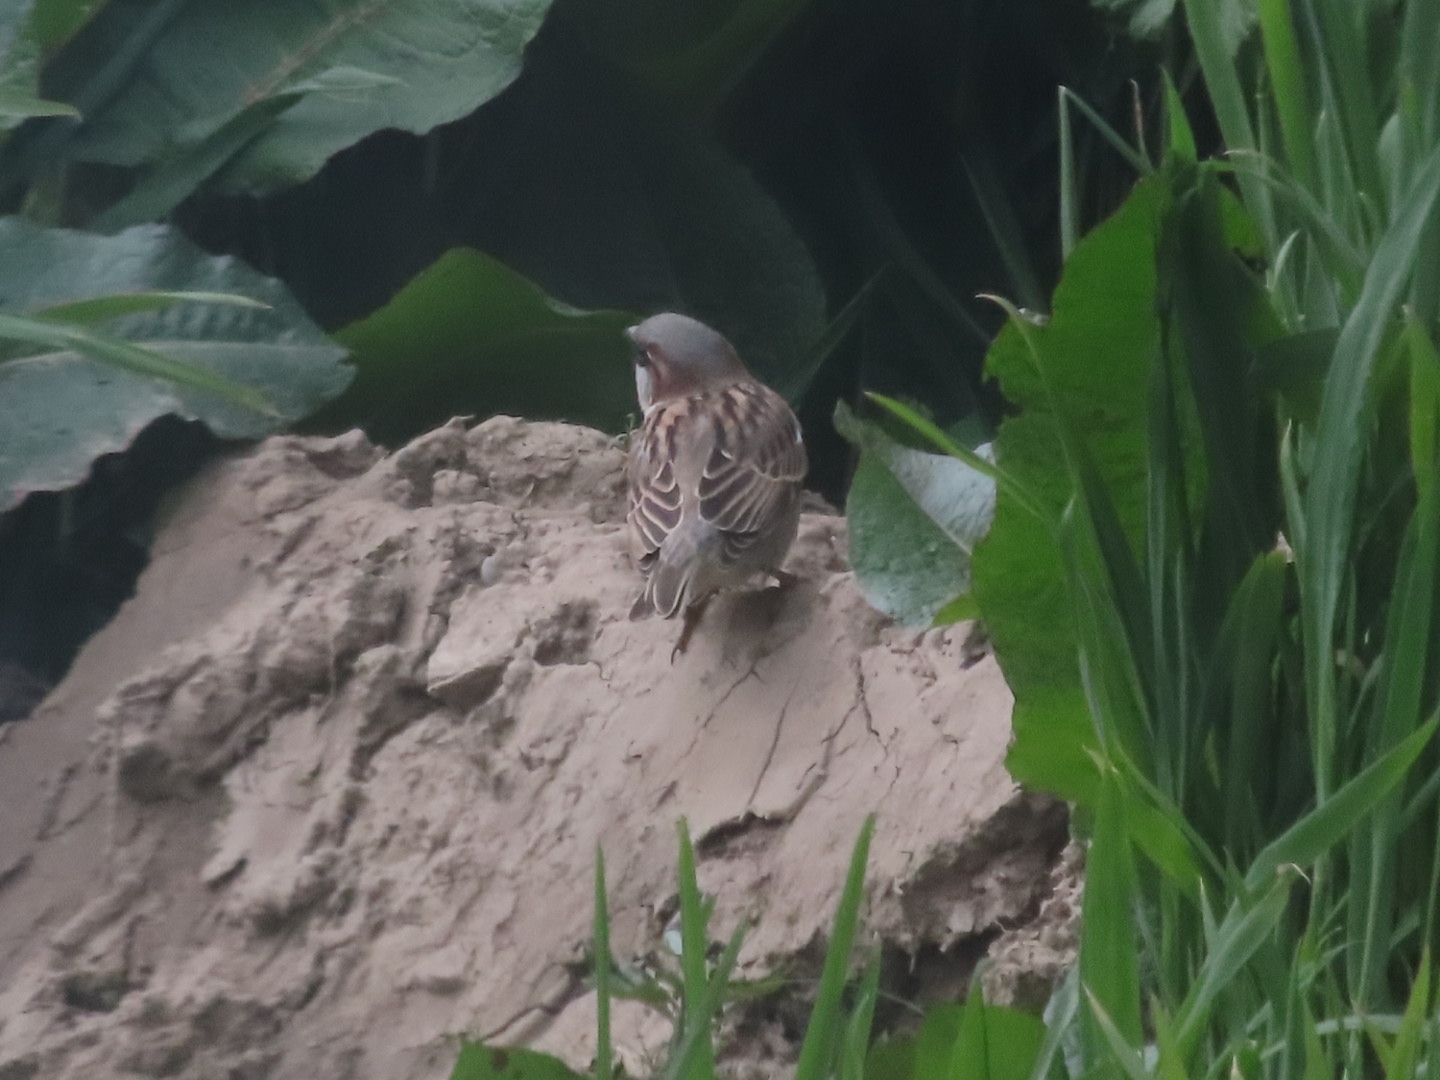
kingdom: Animalia
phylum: Chordata
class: Aves
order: Passeriformes
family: Passeridae
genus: Passer
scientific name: Passer domesticus
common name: House sparrow
